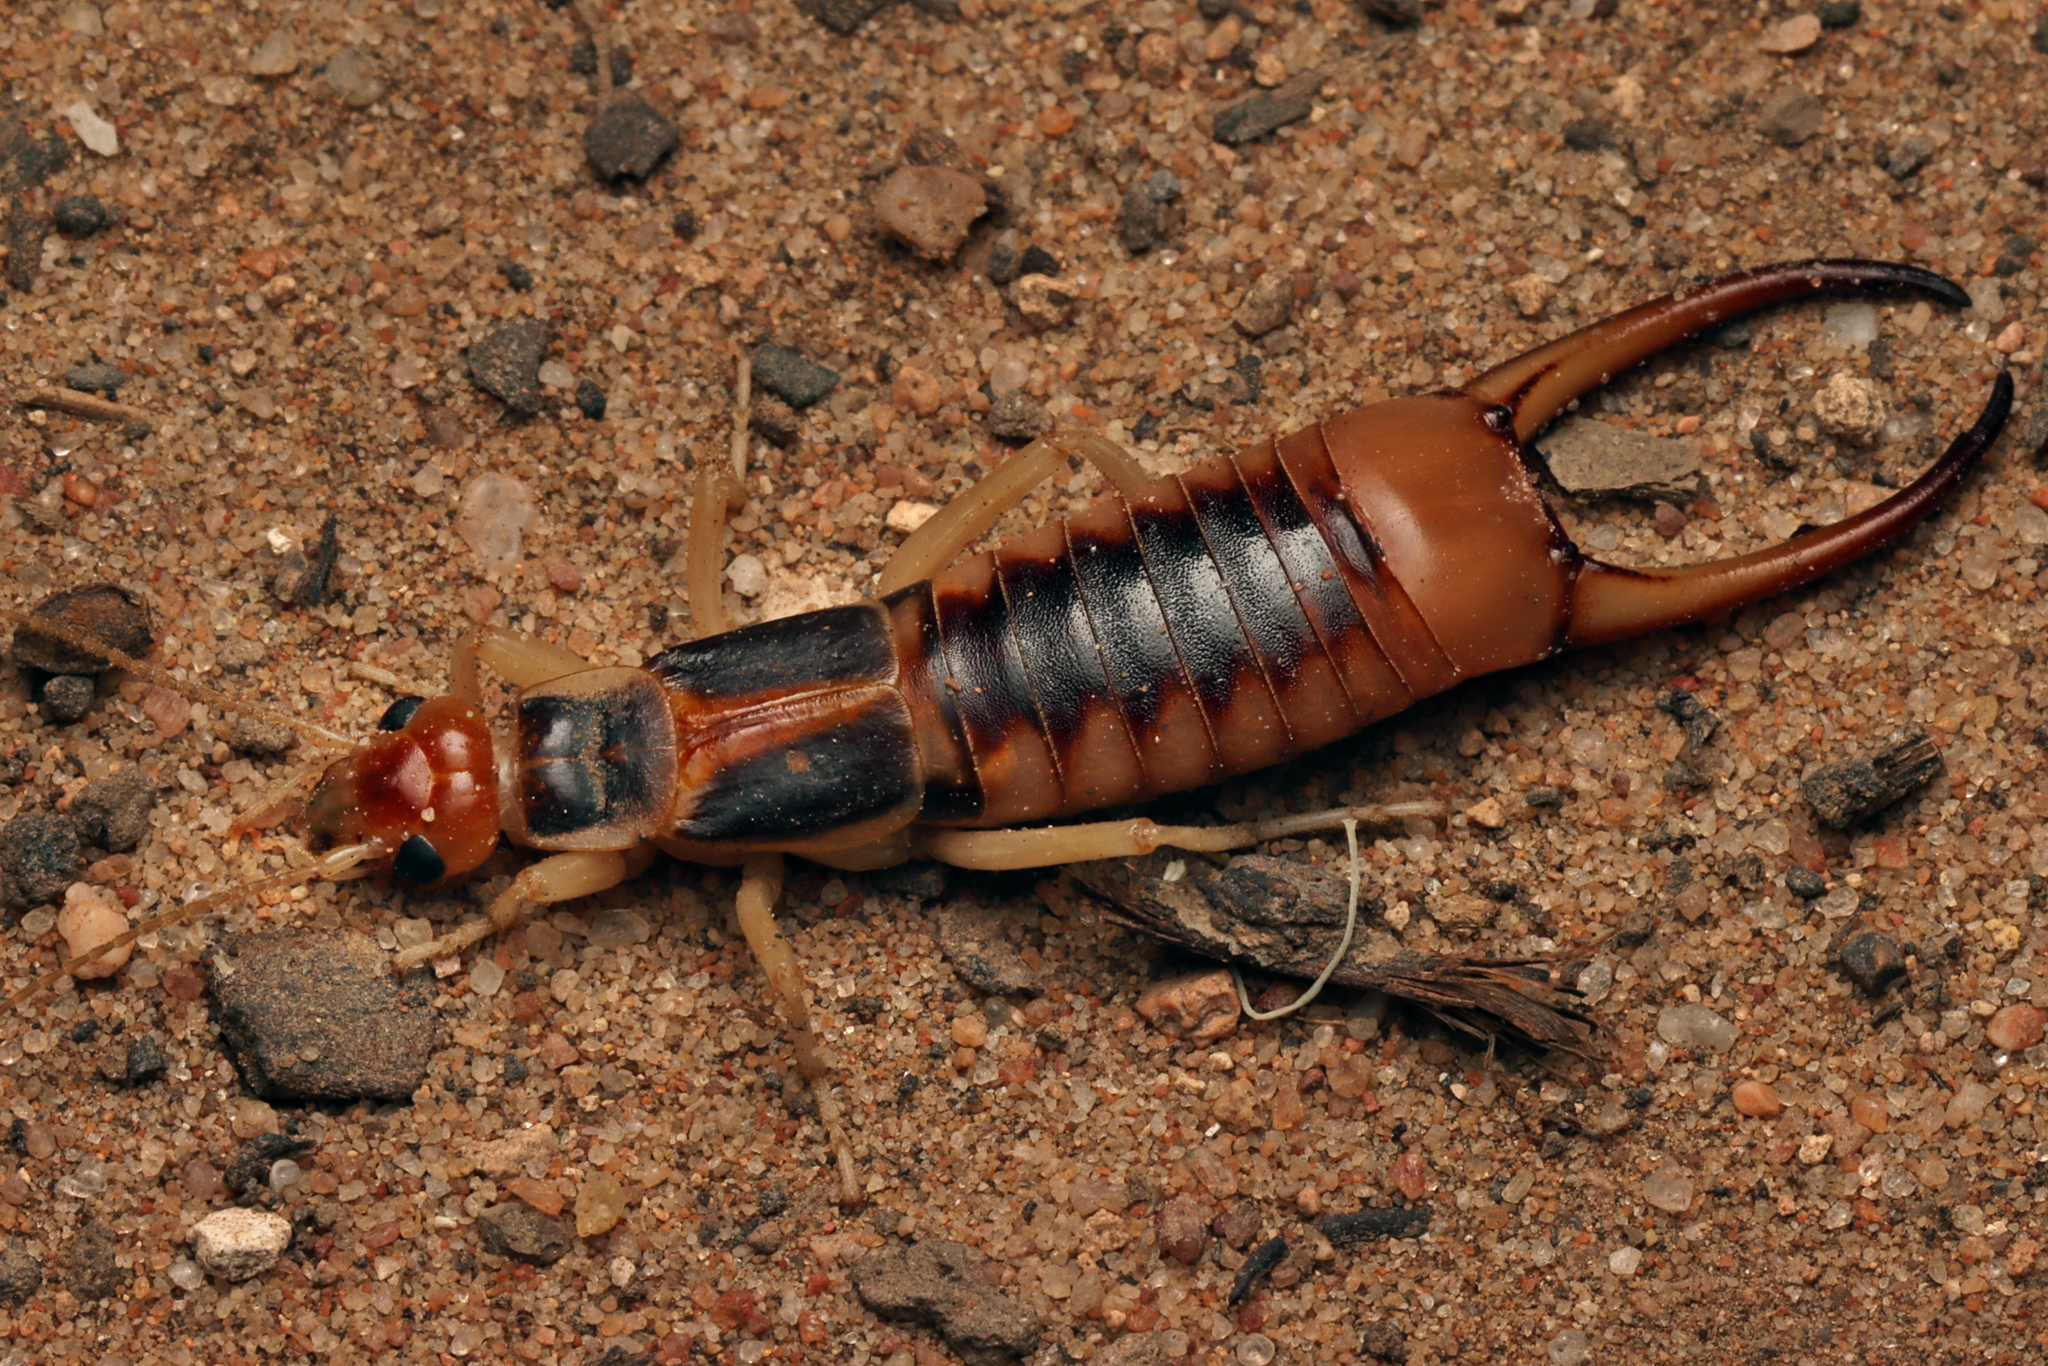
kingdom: Animalia
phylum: Arthropoda
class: Insecta
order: Dermaptera
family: Labiduridae
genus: Labidura
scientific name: Labidura riparia
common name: Striped earwig
